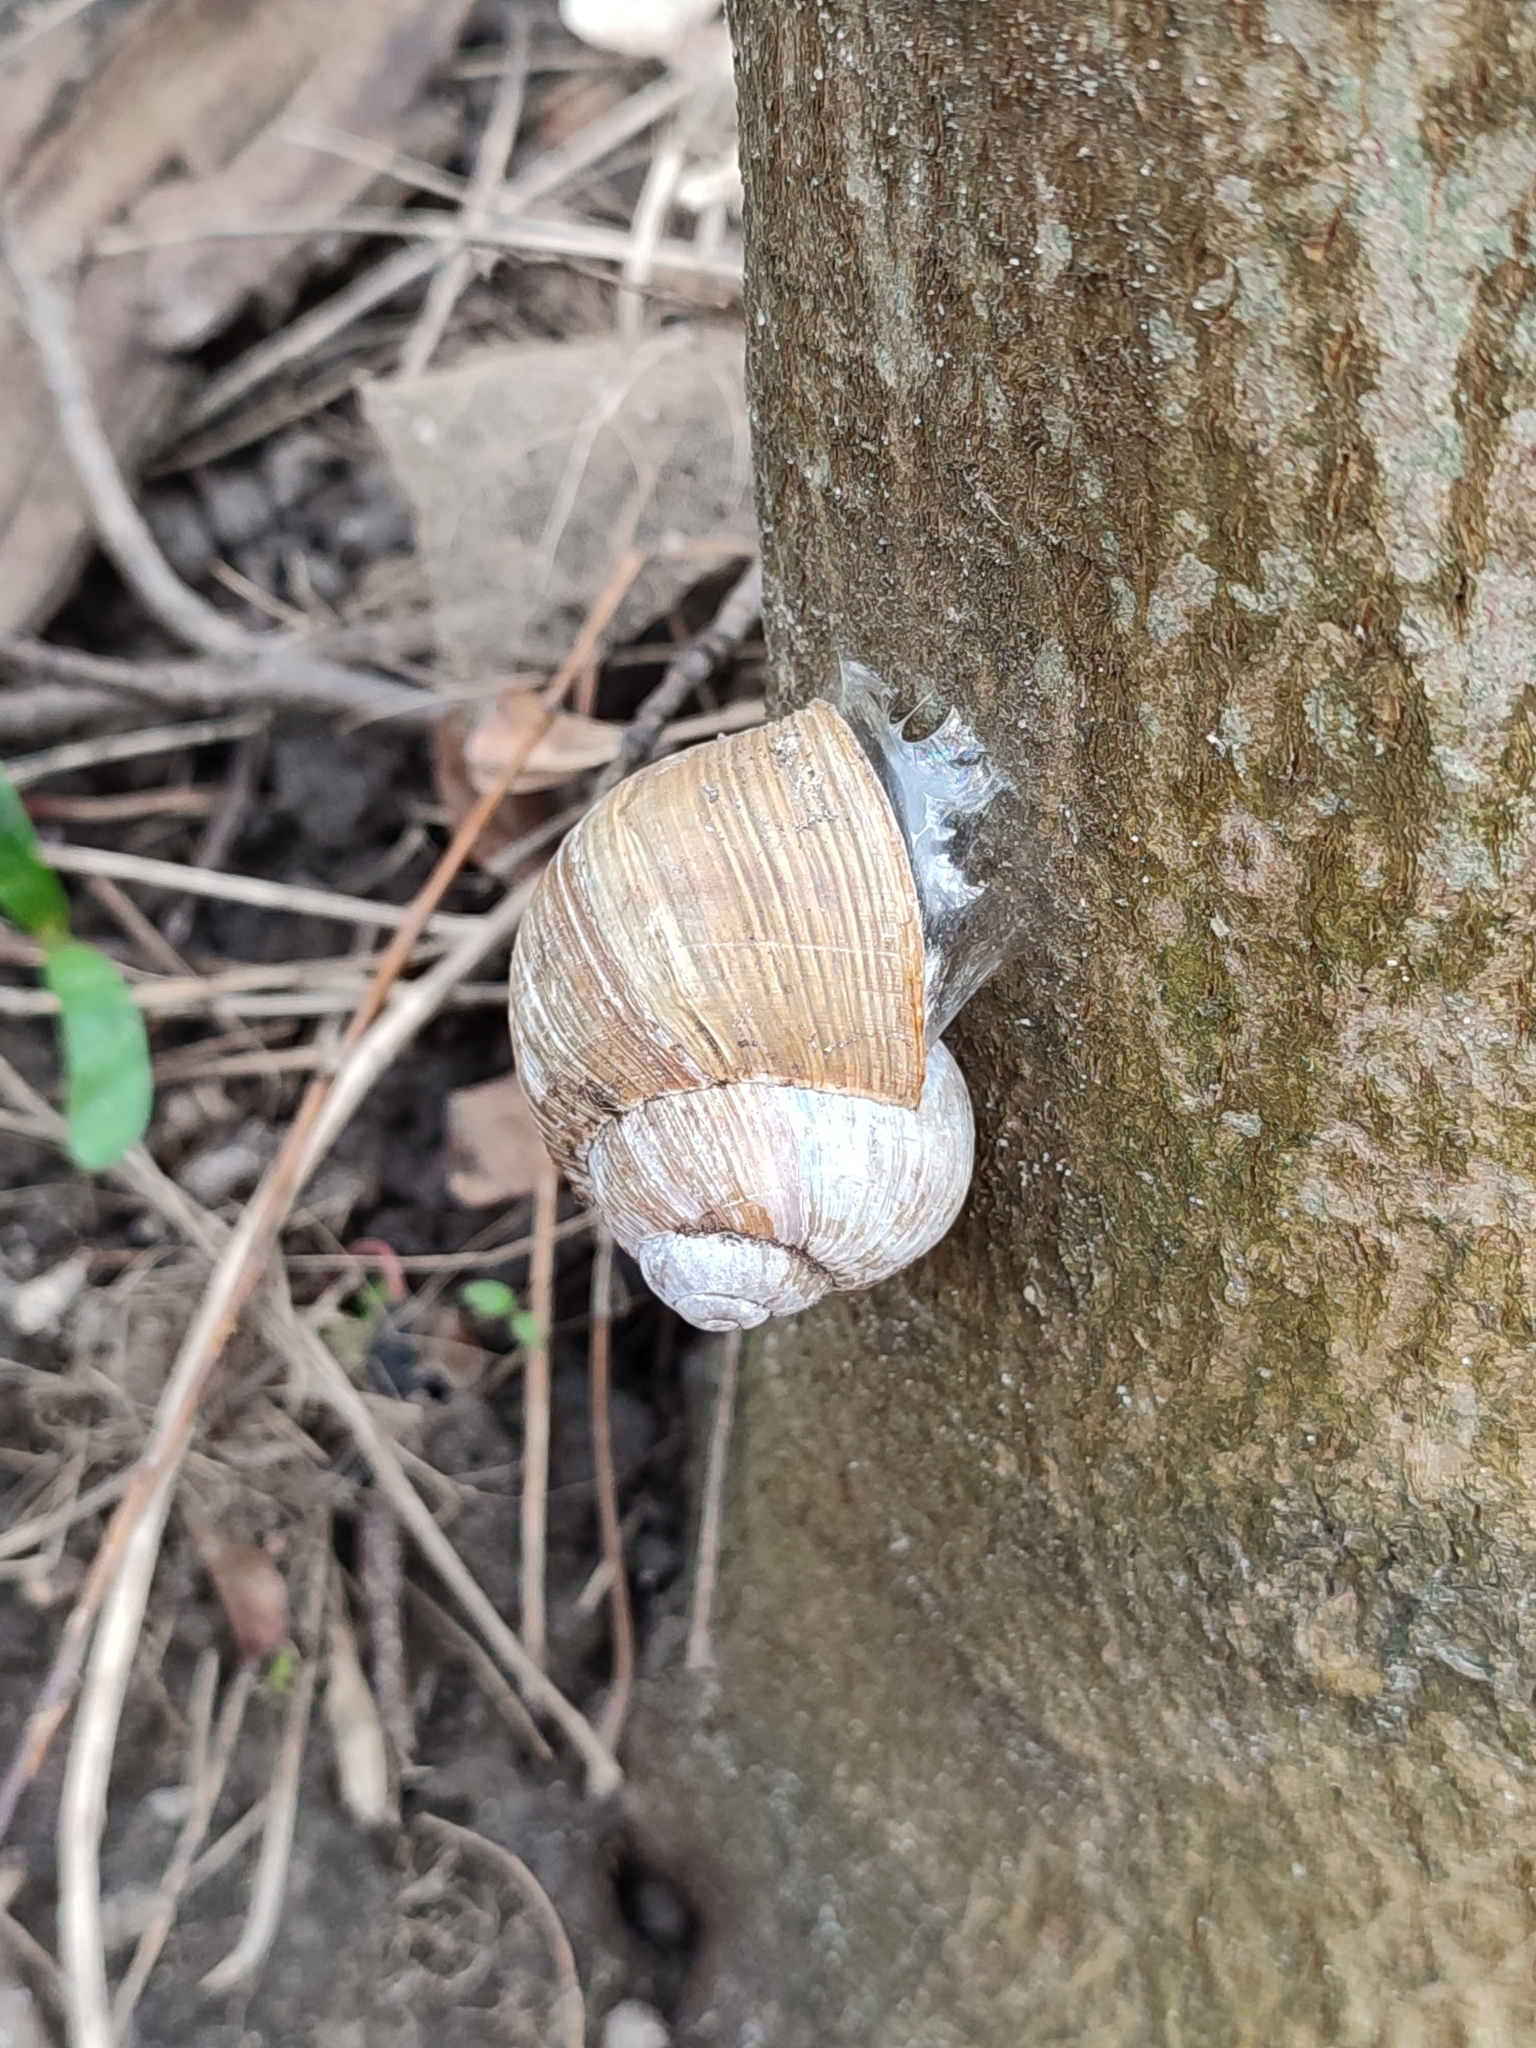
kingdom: Animalia
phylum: Mollusca
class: Gastropoda
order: Stylommatophora
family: Helicidae
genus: Helix
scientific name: Helix pomatia
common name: Roman snail
